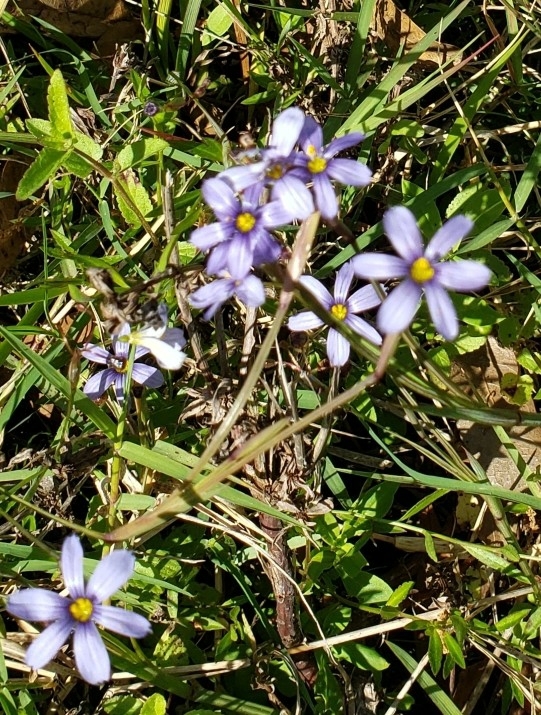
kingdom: Plantae
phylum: Tracheophyta
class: Liliopsida
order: Asparagales
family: Iridaceae
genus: Sisyrinchium
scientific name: Sisyrinchium angustifolium
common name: Narrow-leaf blue-eyed-grass
